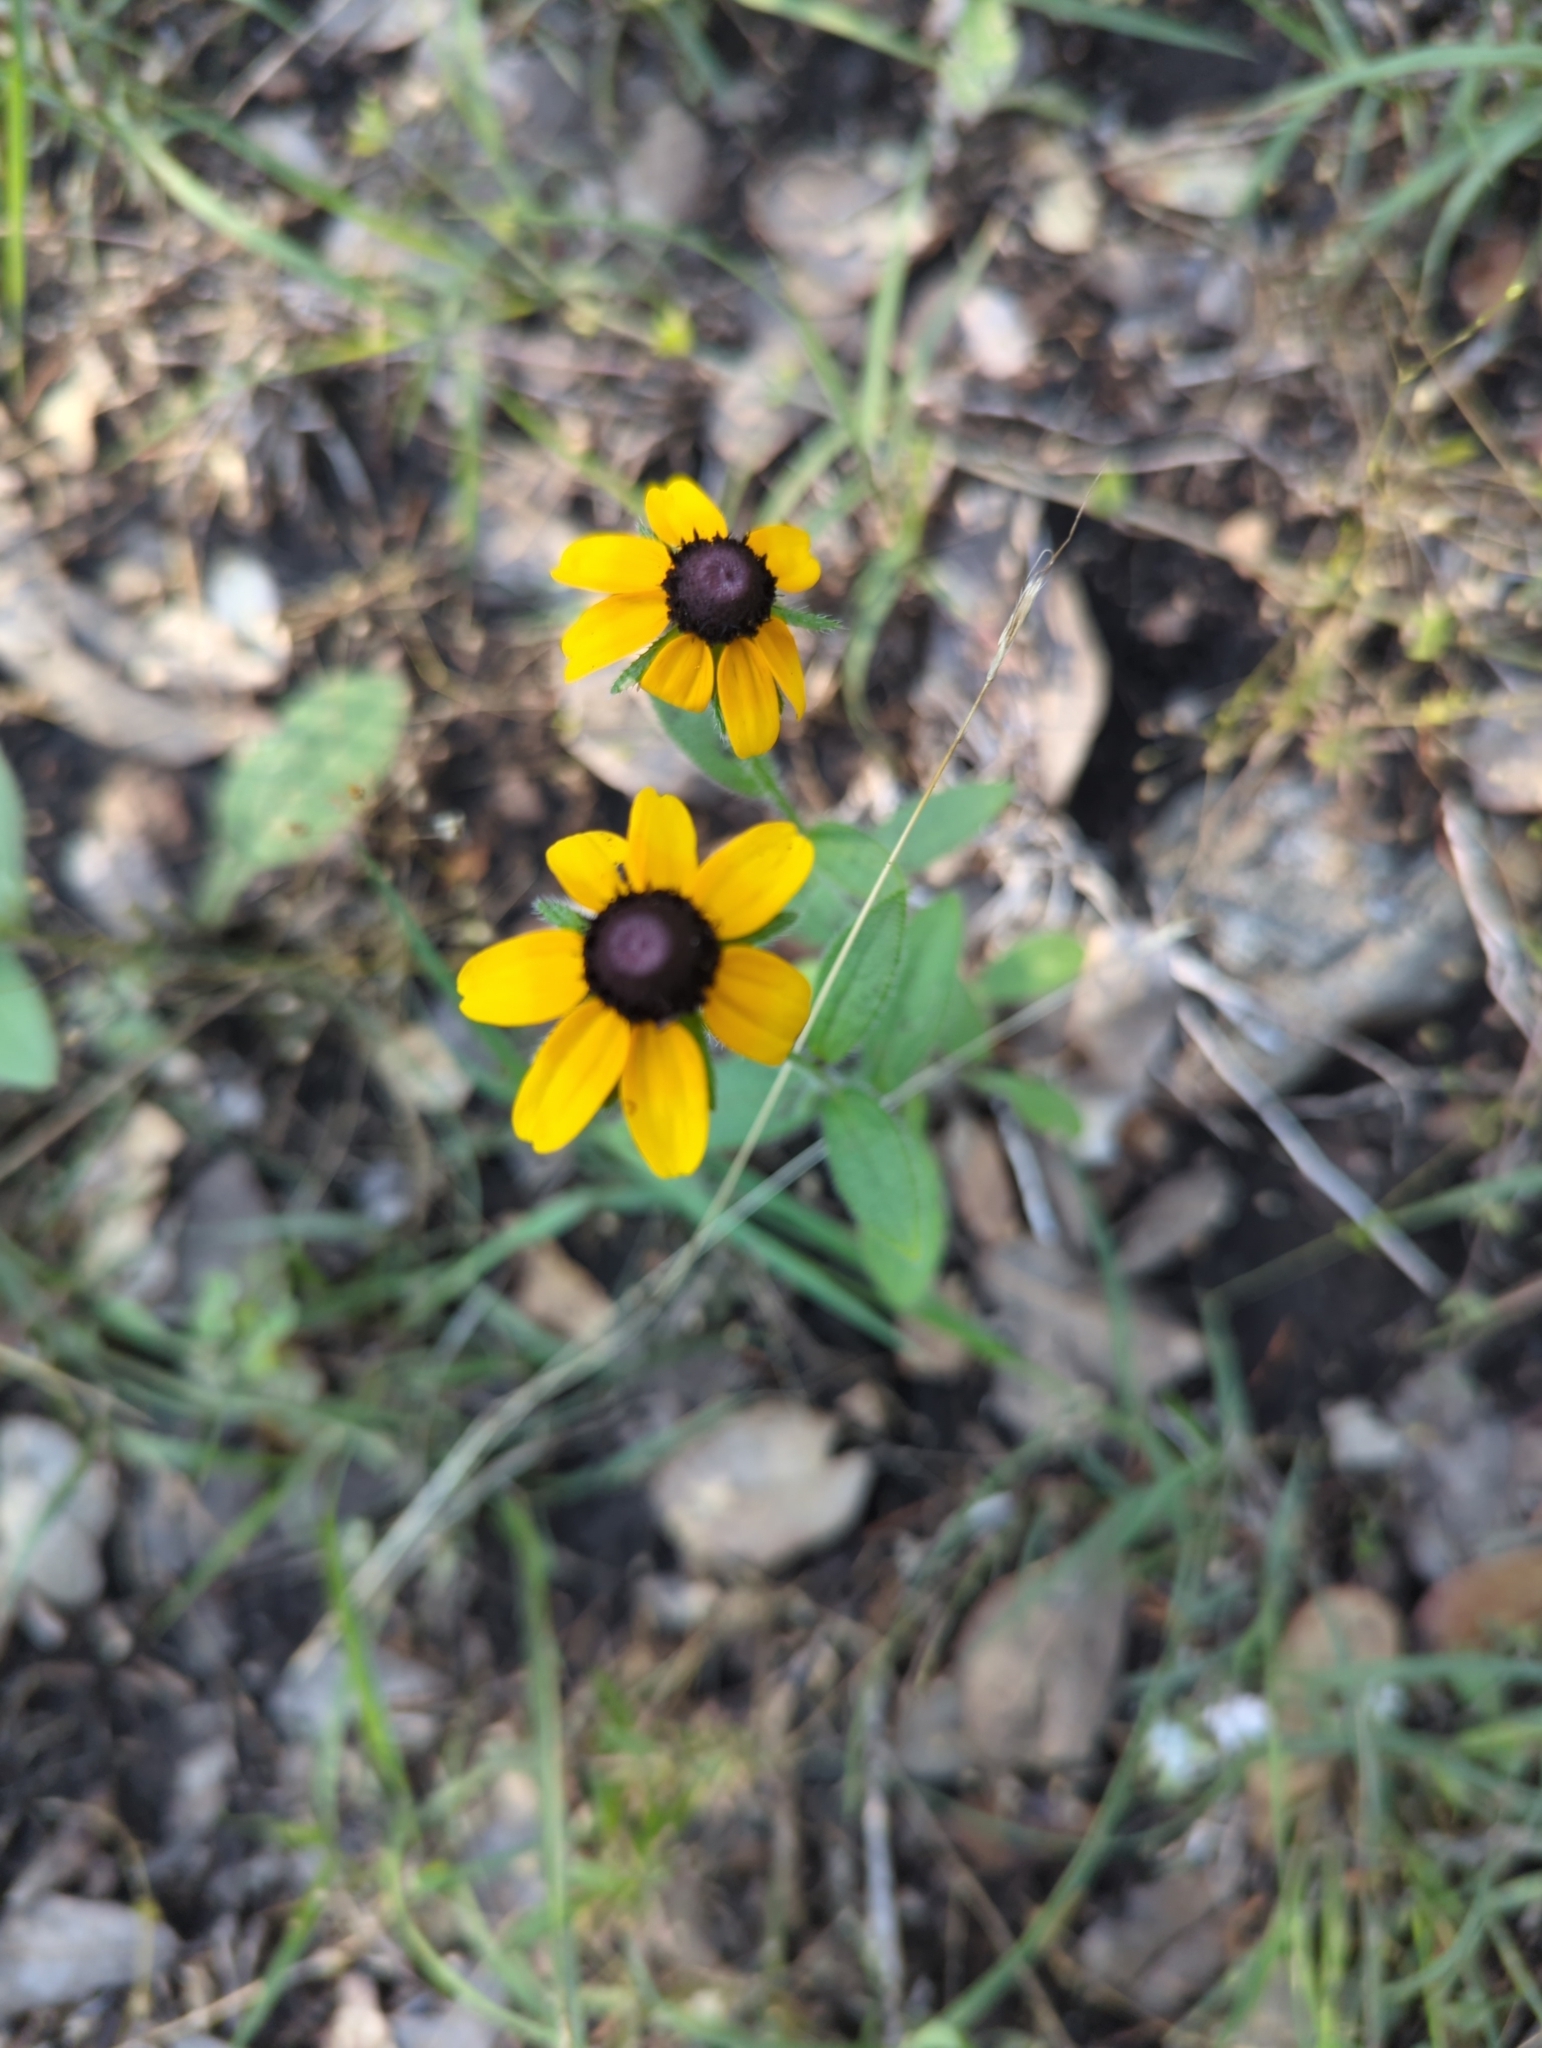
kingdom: Plantae
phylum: Tracheophyta
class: Magnoliopsida
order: Asterales
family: Asteraceae
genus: Rudbeckia
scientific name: Rudbeckia hirta
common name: Black-eyed-susan
